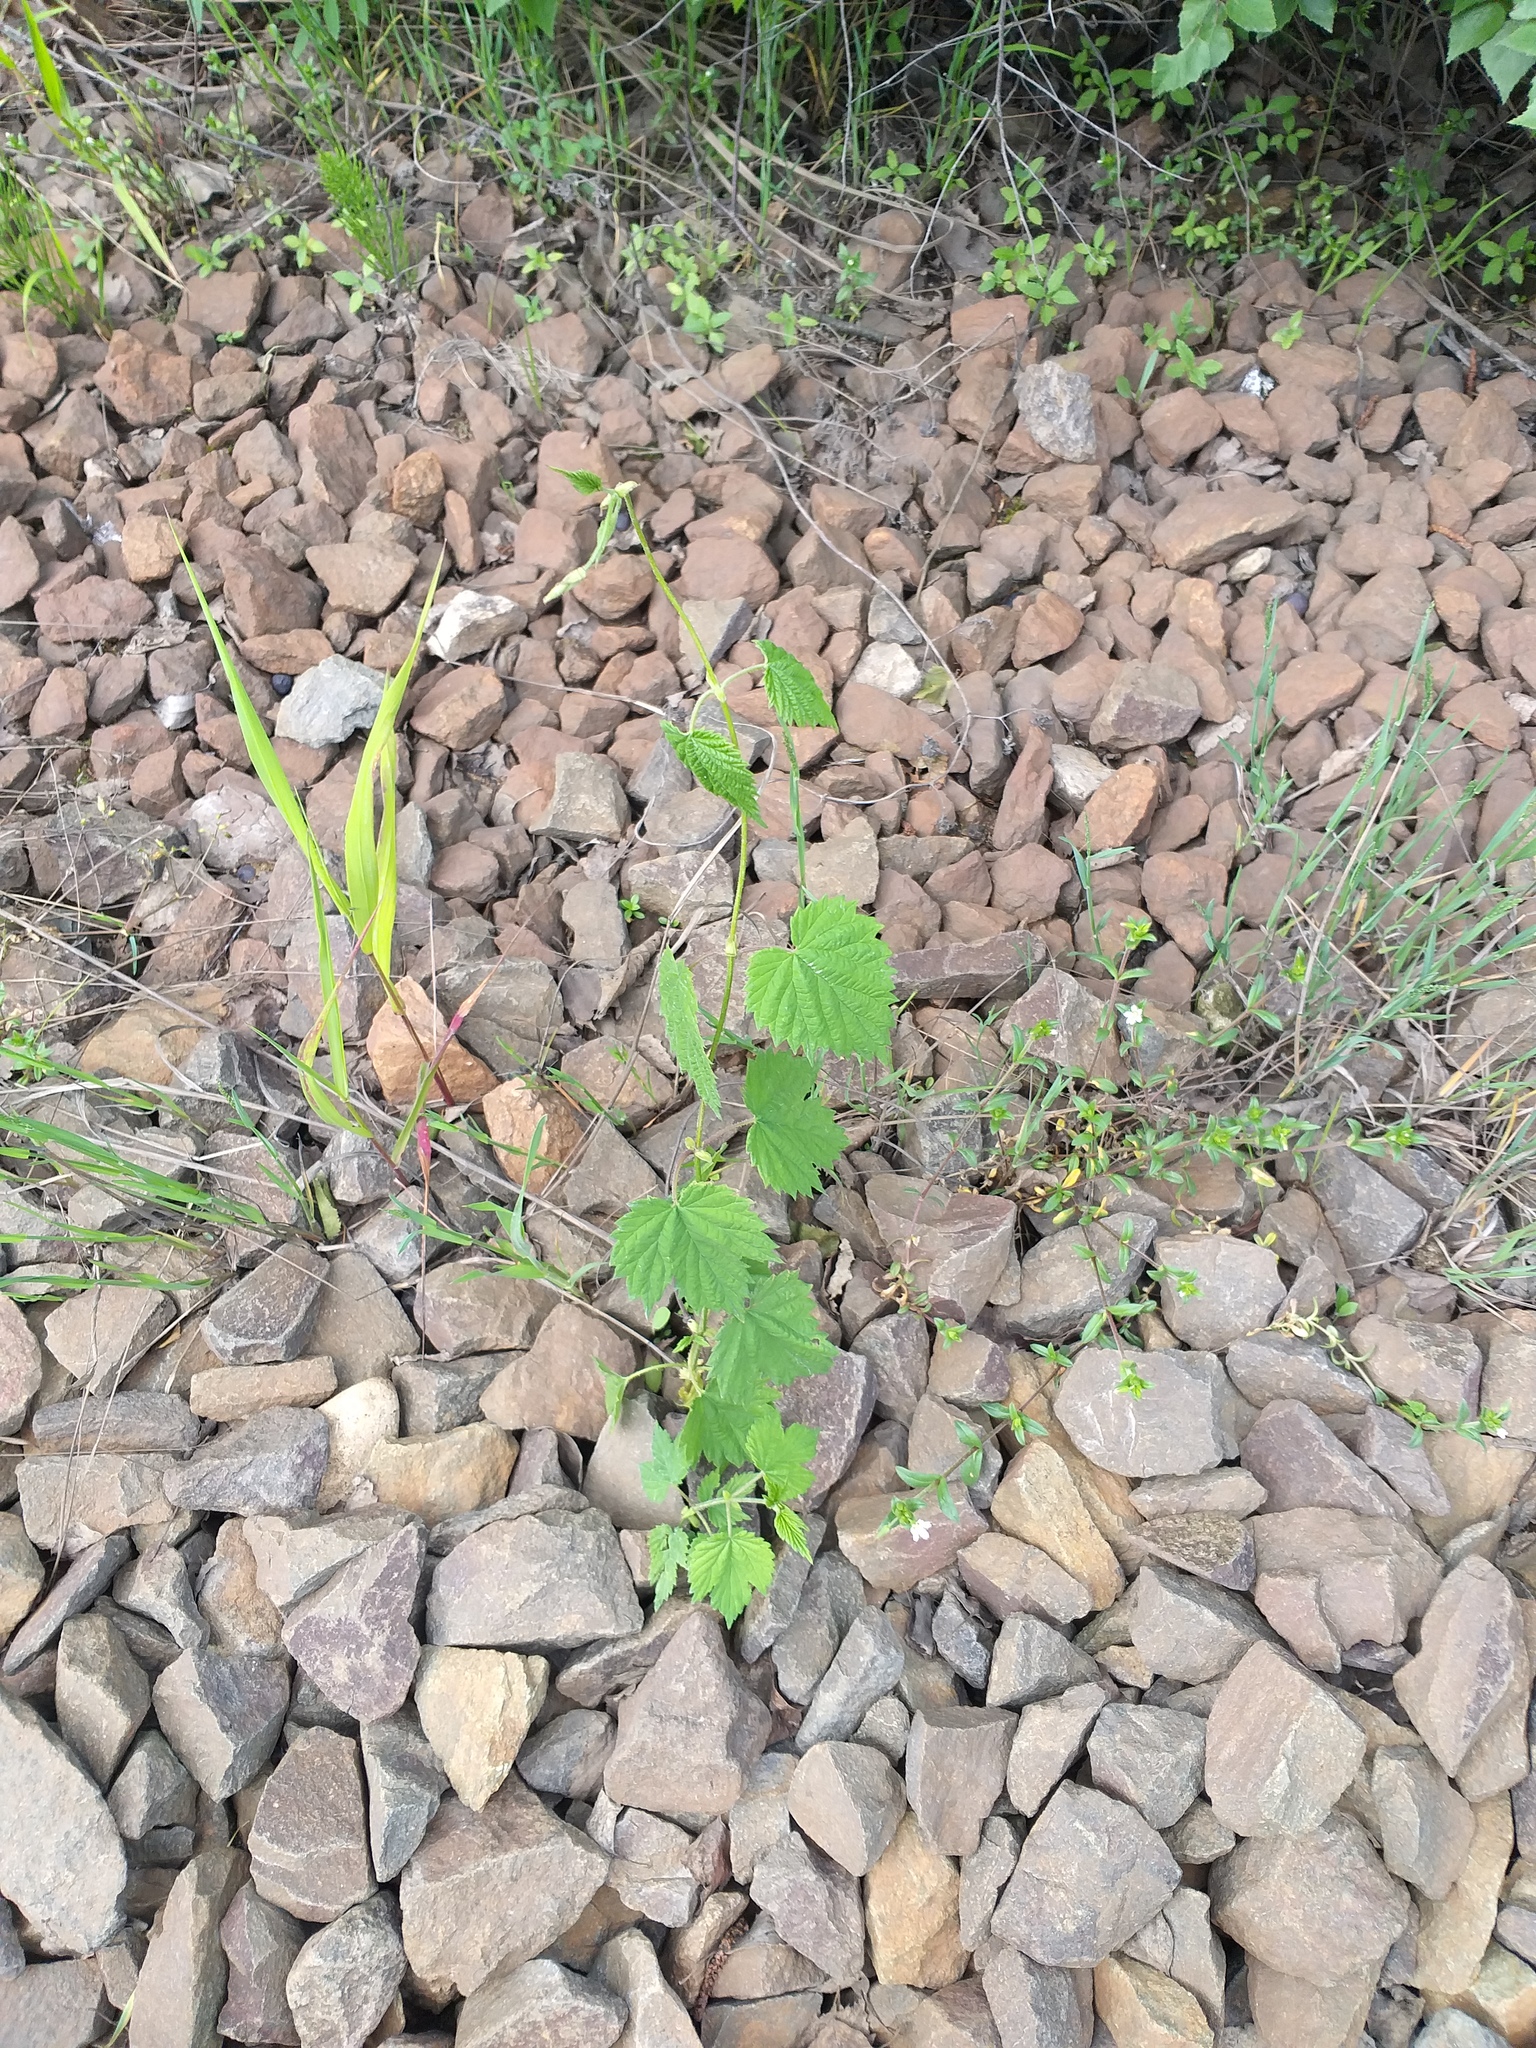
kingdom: Plantae
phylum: Tracheophyta
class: Magnoliopsida
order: Rosales
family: Cannabaceae
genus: Humulus
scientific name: Humulus lupulus
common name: Hop
